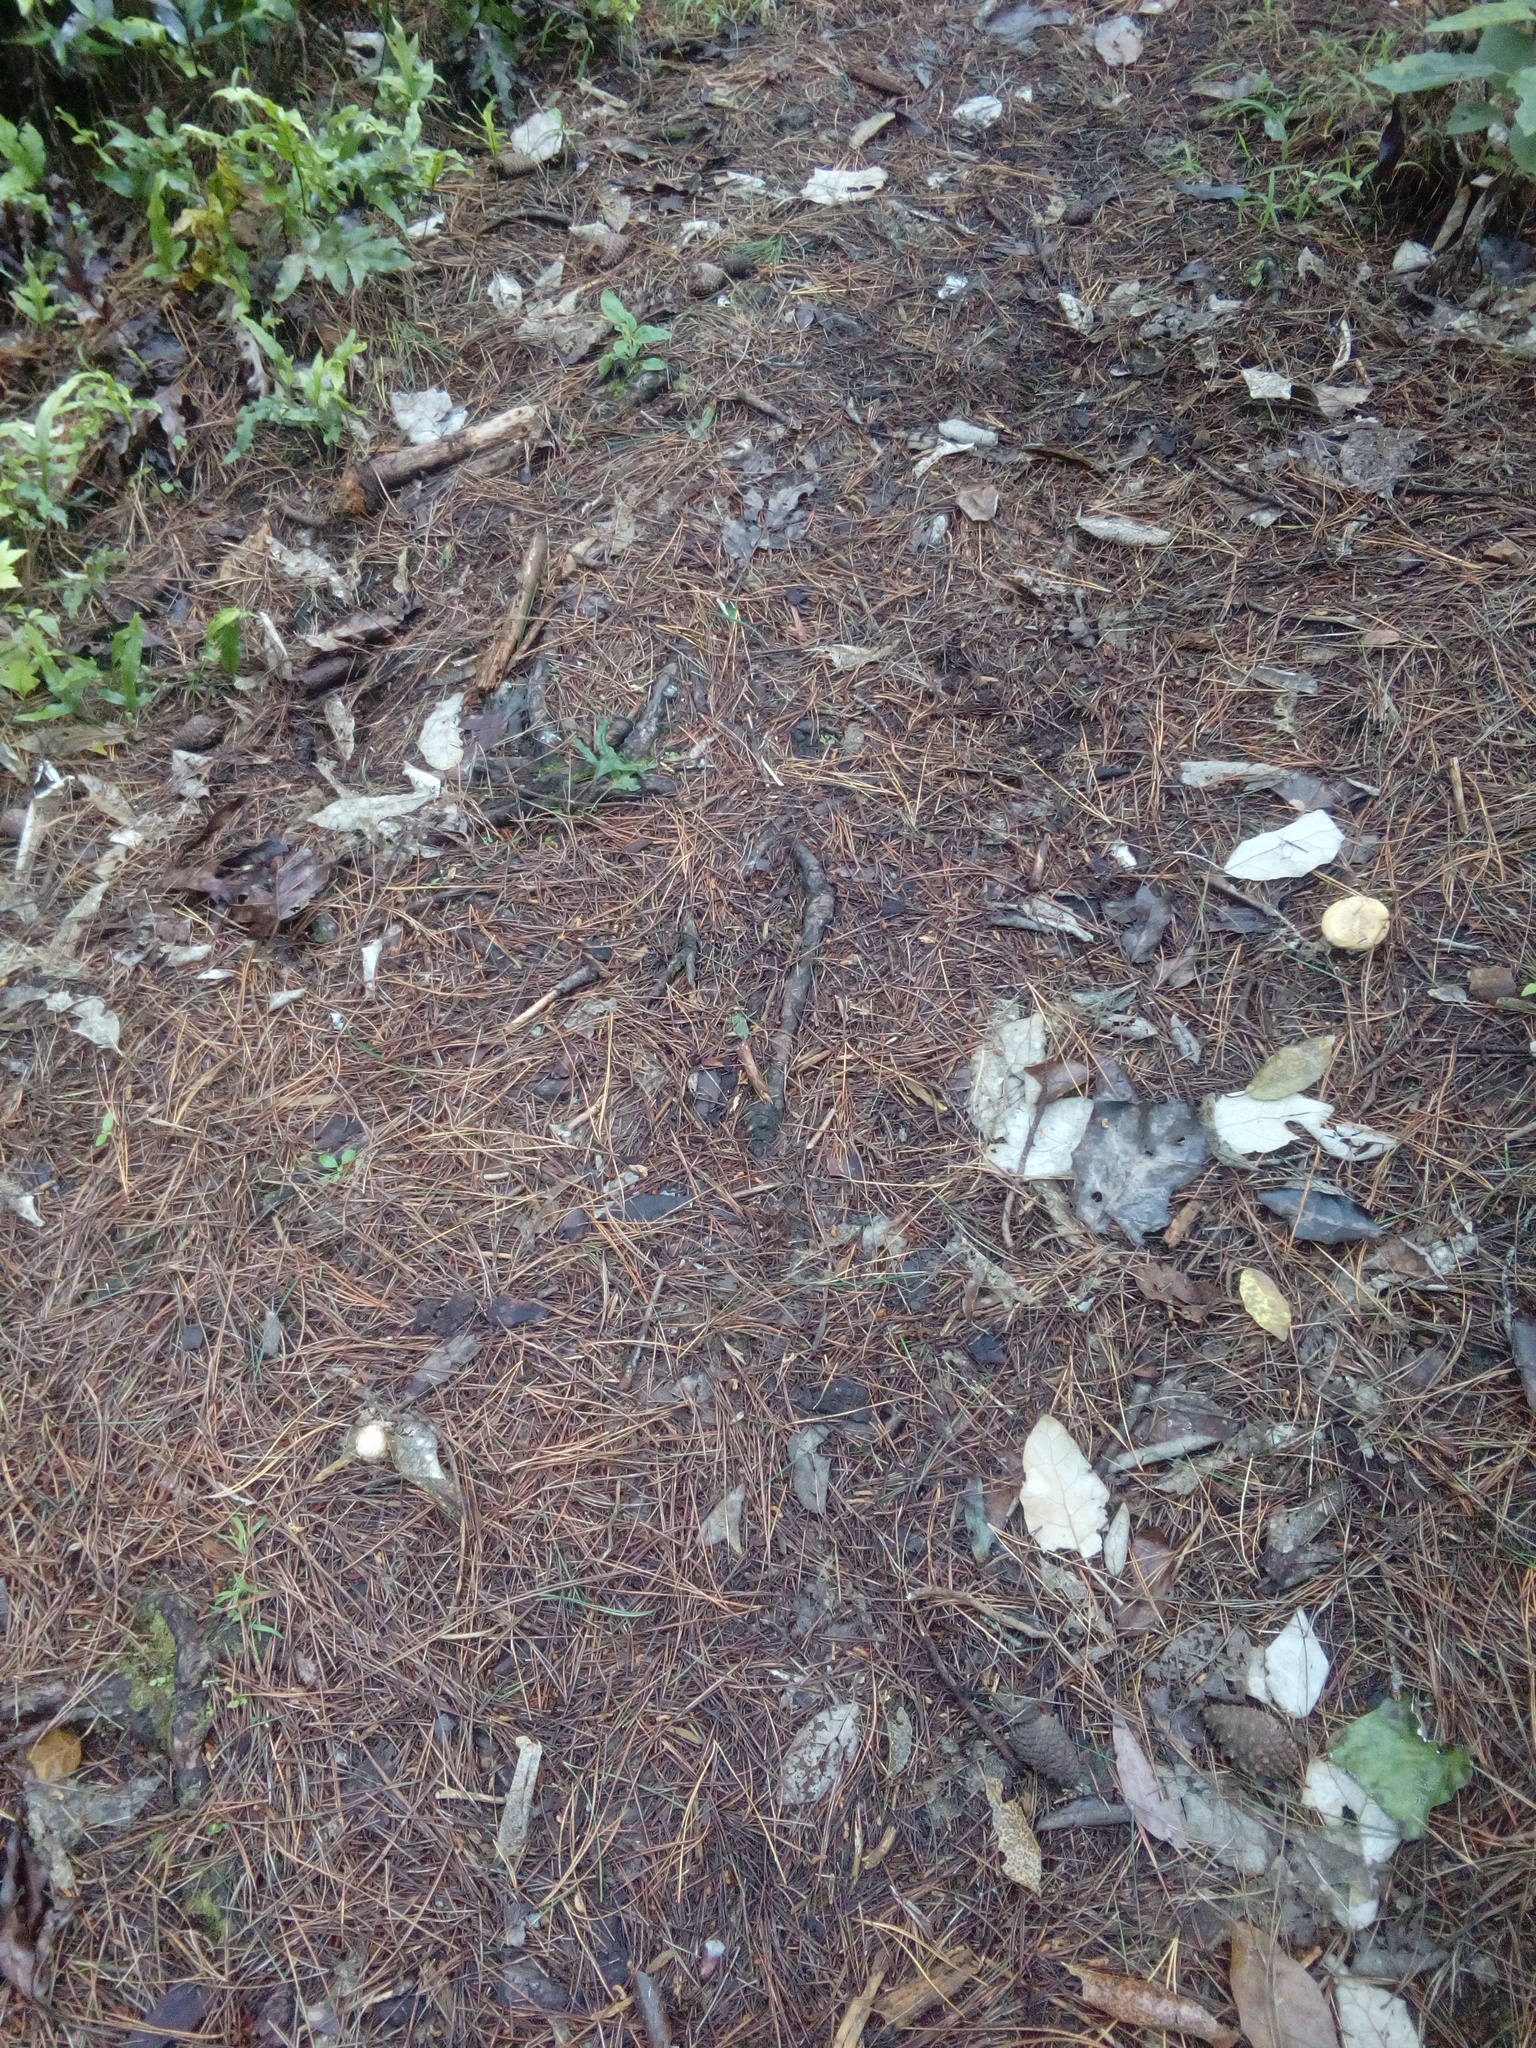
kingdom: Fungi
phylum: Basidiomycota
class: Agaricomycetes
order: Agaricales
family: Amanitaceae
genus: Amanita
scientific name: Amanita gemmata
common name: Jewelled amanita
